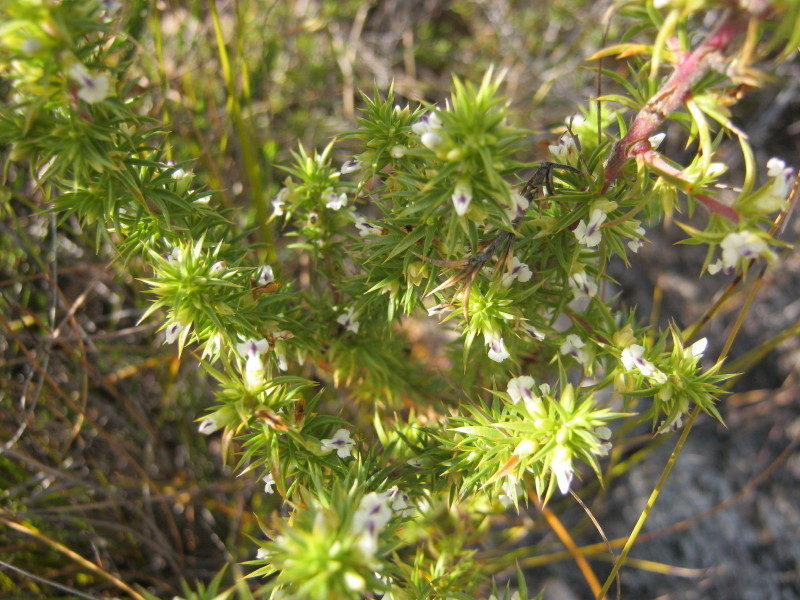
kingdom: Plantae
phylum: Tracheophyta
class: Magnoliopsida
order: Fabales
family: Polygalaceae
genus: Muraltia
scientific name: Muraltia ericifolia
